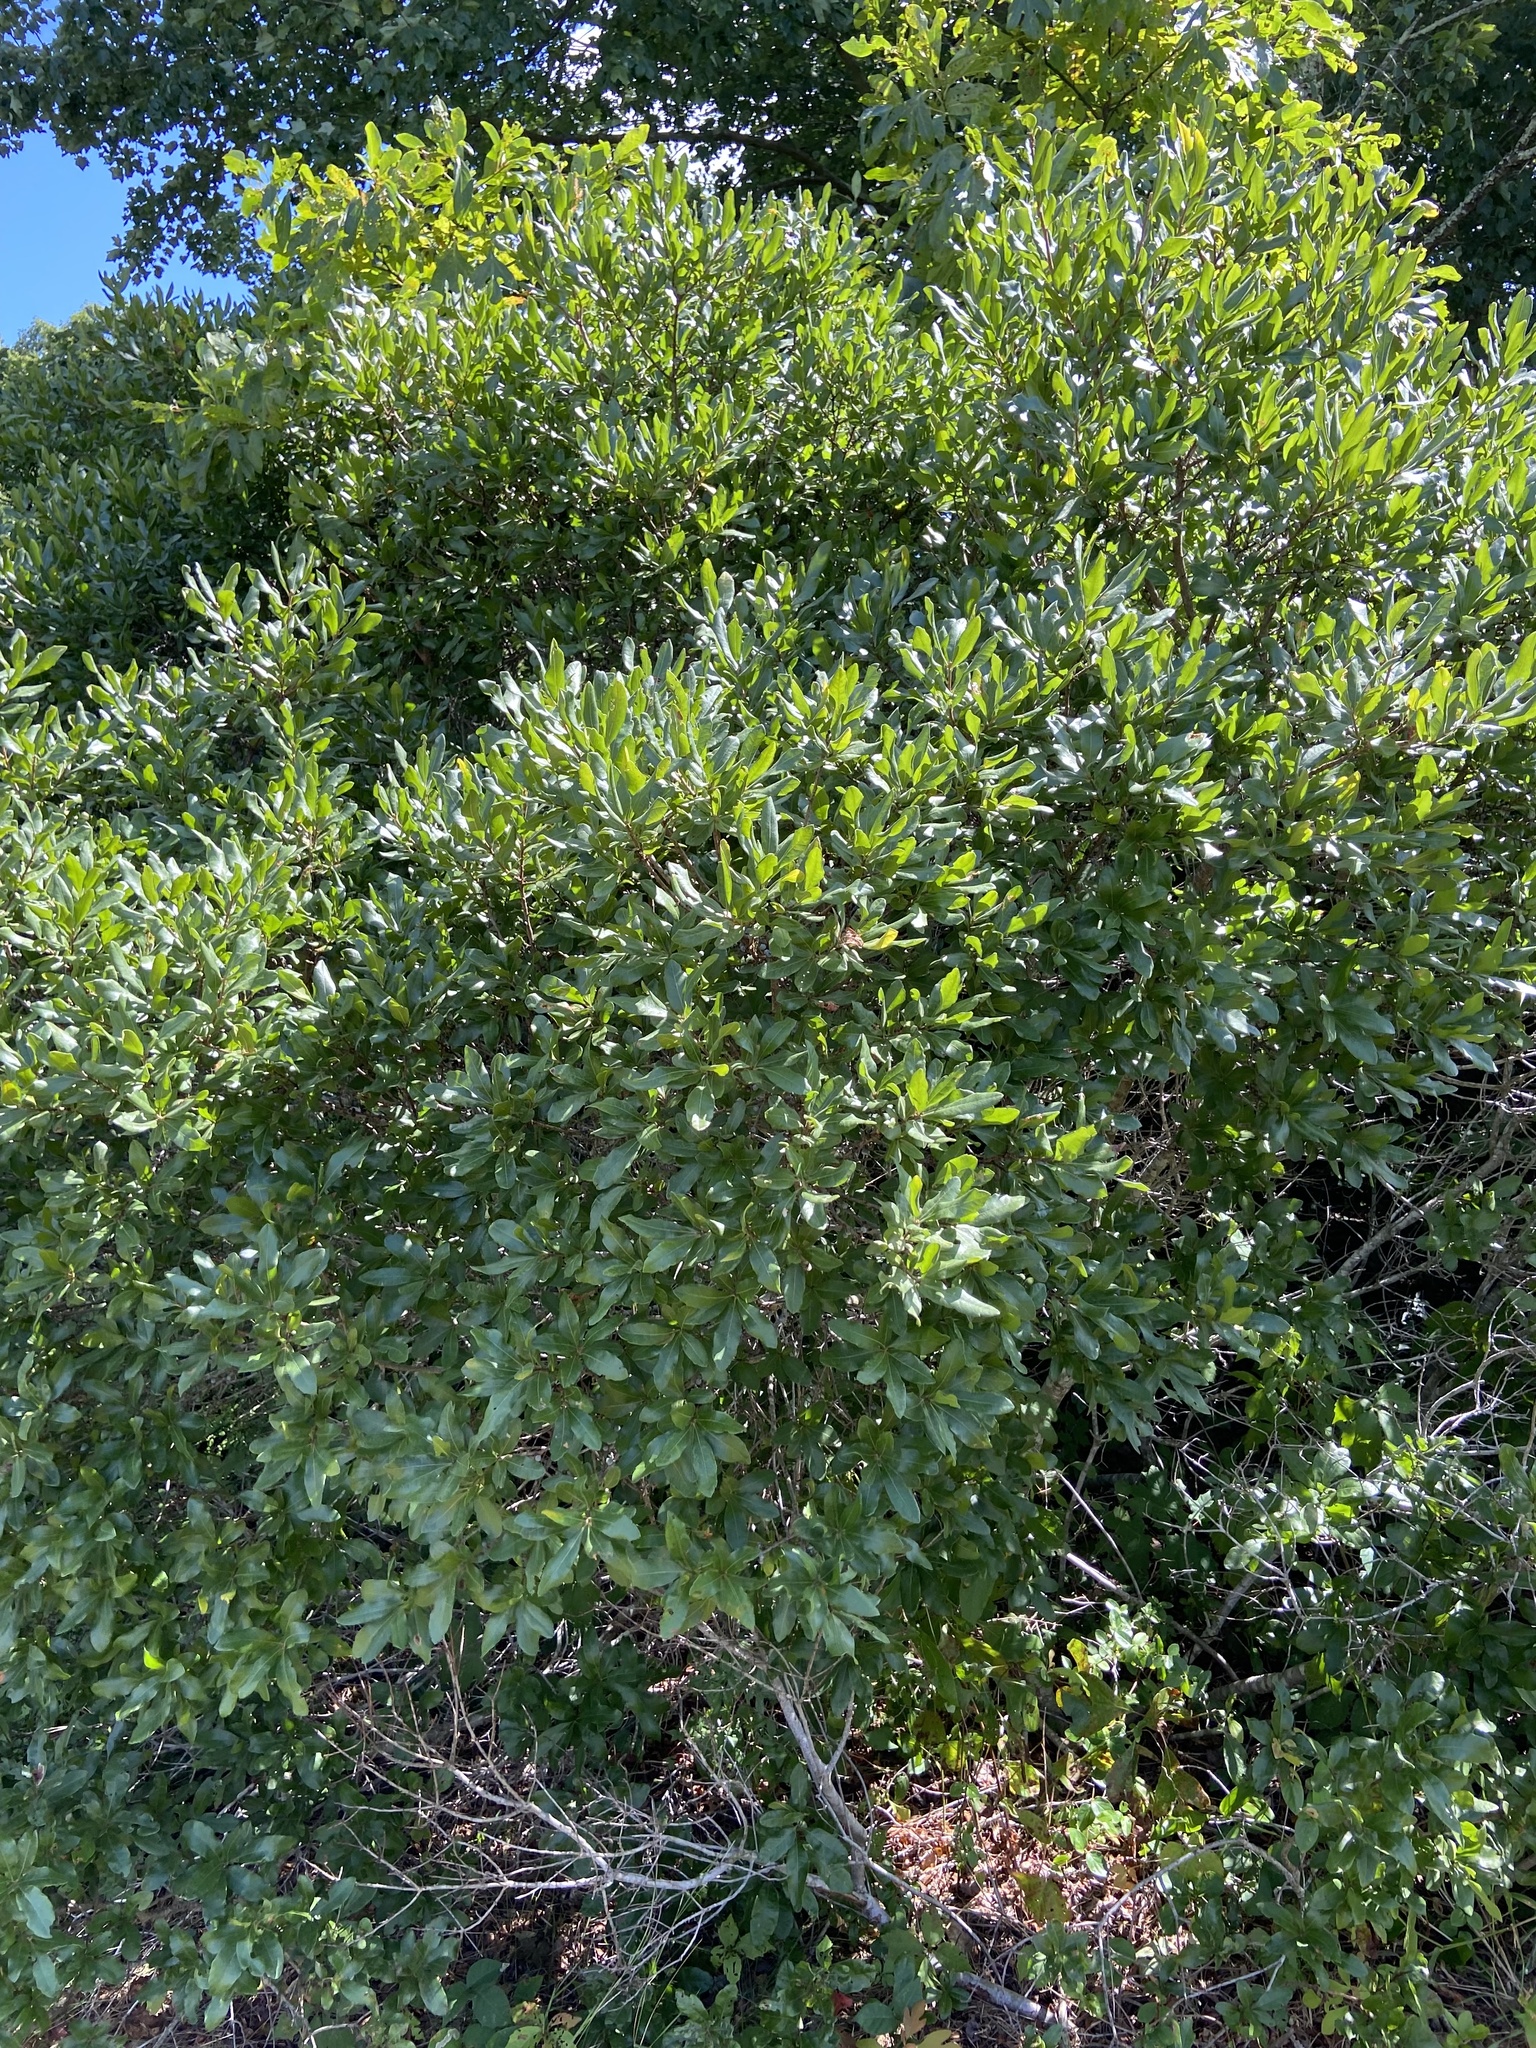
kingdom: Plantae
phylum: Tracheophyta
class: Magnoliopsida
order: Fagales
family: Myricaceae
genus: Morella
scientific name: Morella pensylvanica
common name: Northern bayberry
